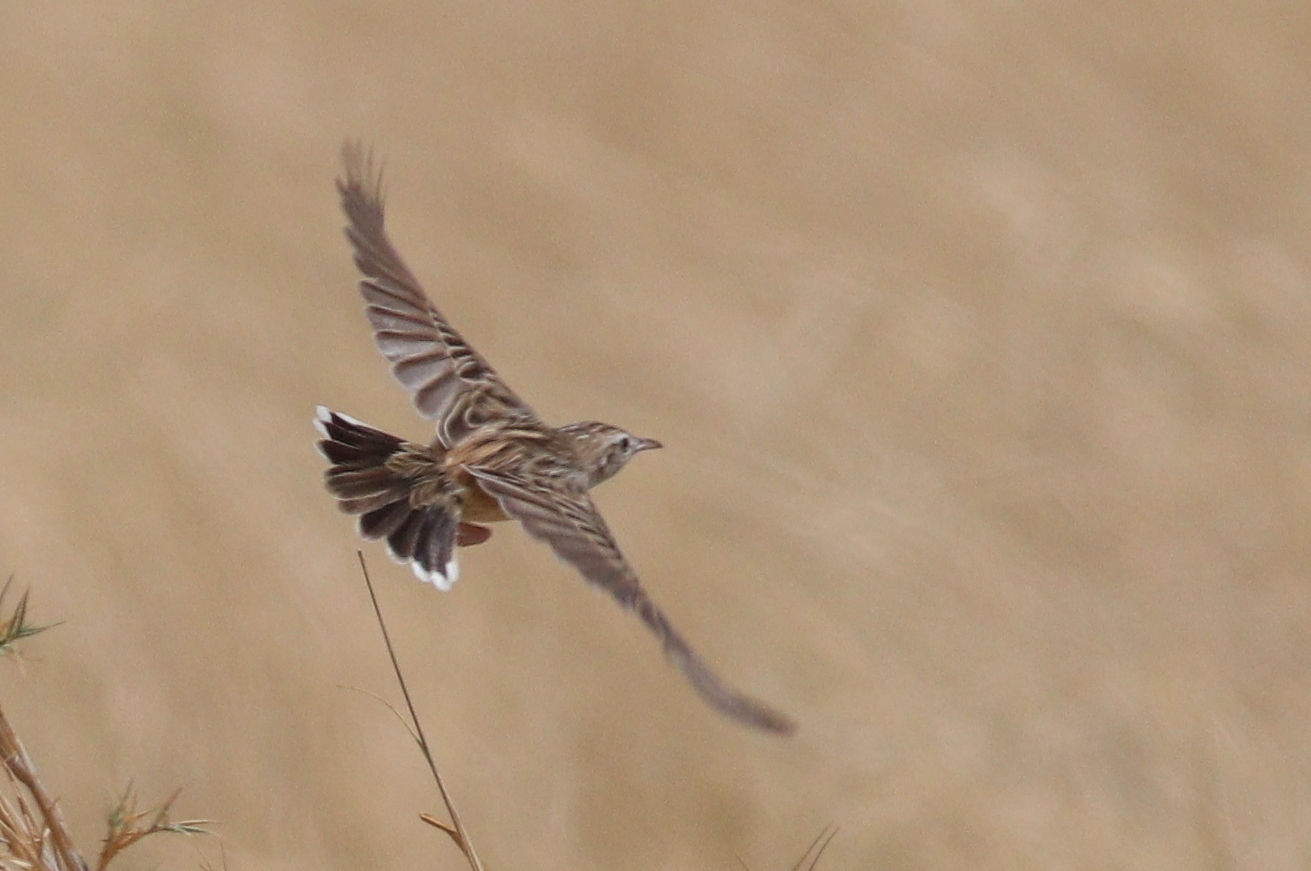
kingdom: Animalia
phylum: Chordata
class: Aves
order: Passeriformes
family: Cisticolidae
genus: Cisticola
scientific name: Cisticola aridulus
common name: Desert cisticola
